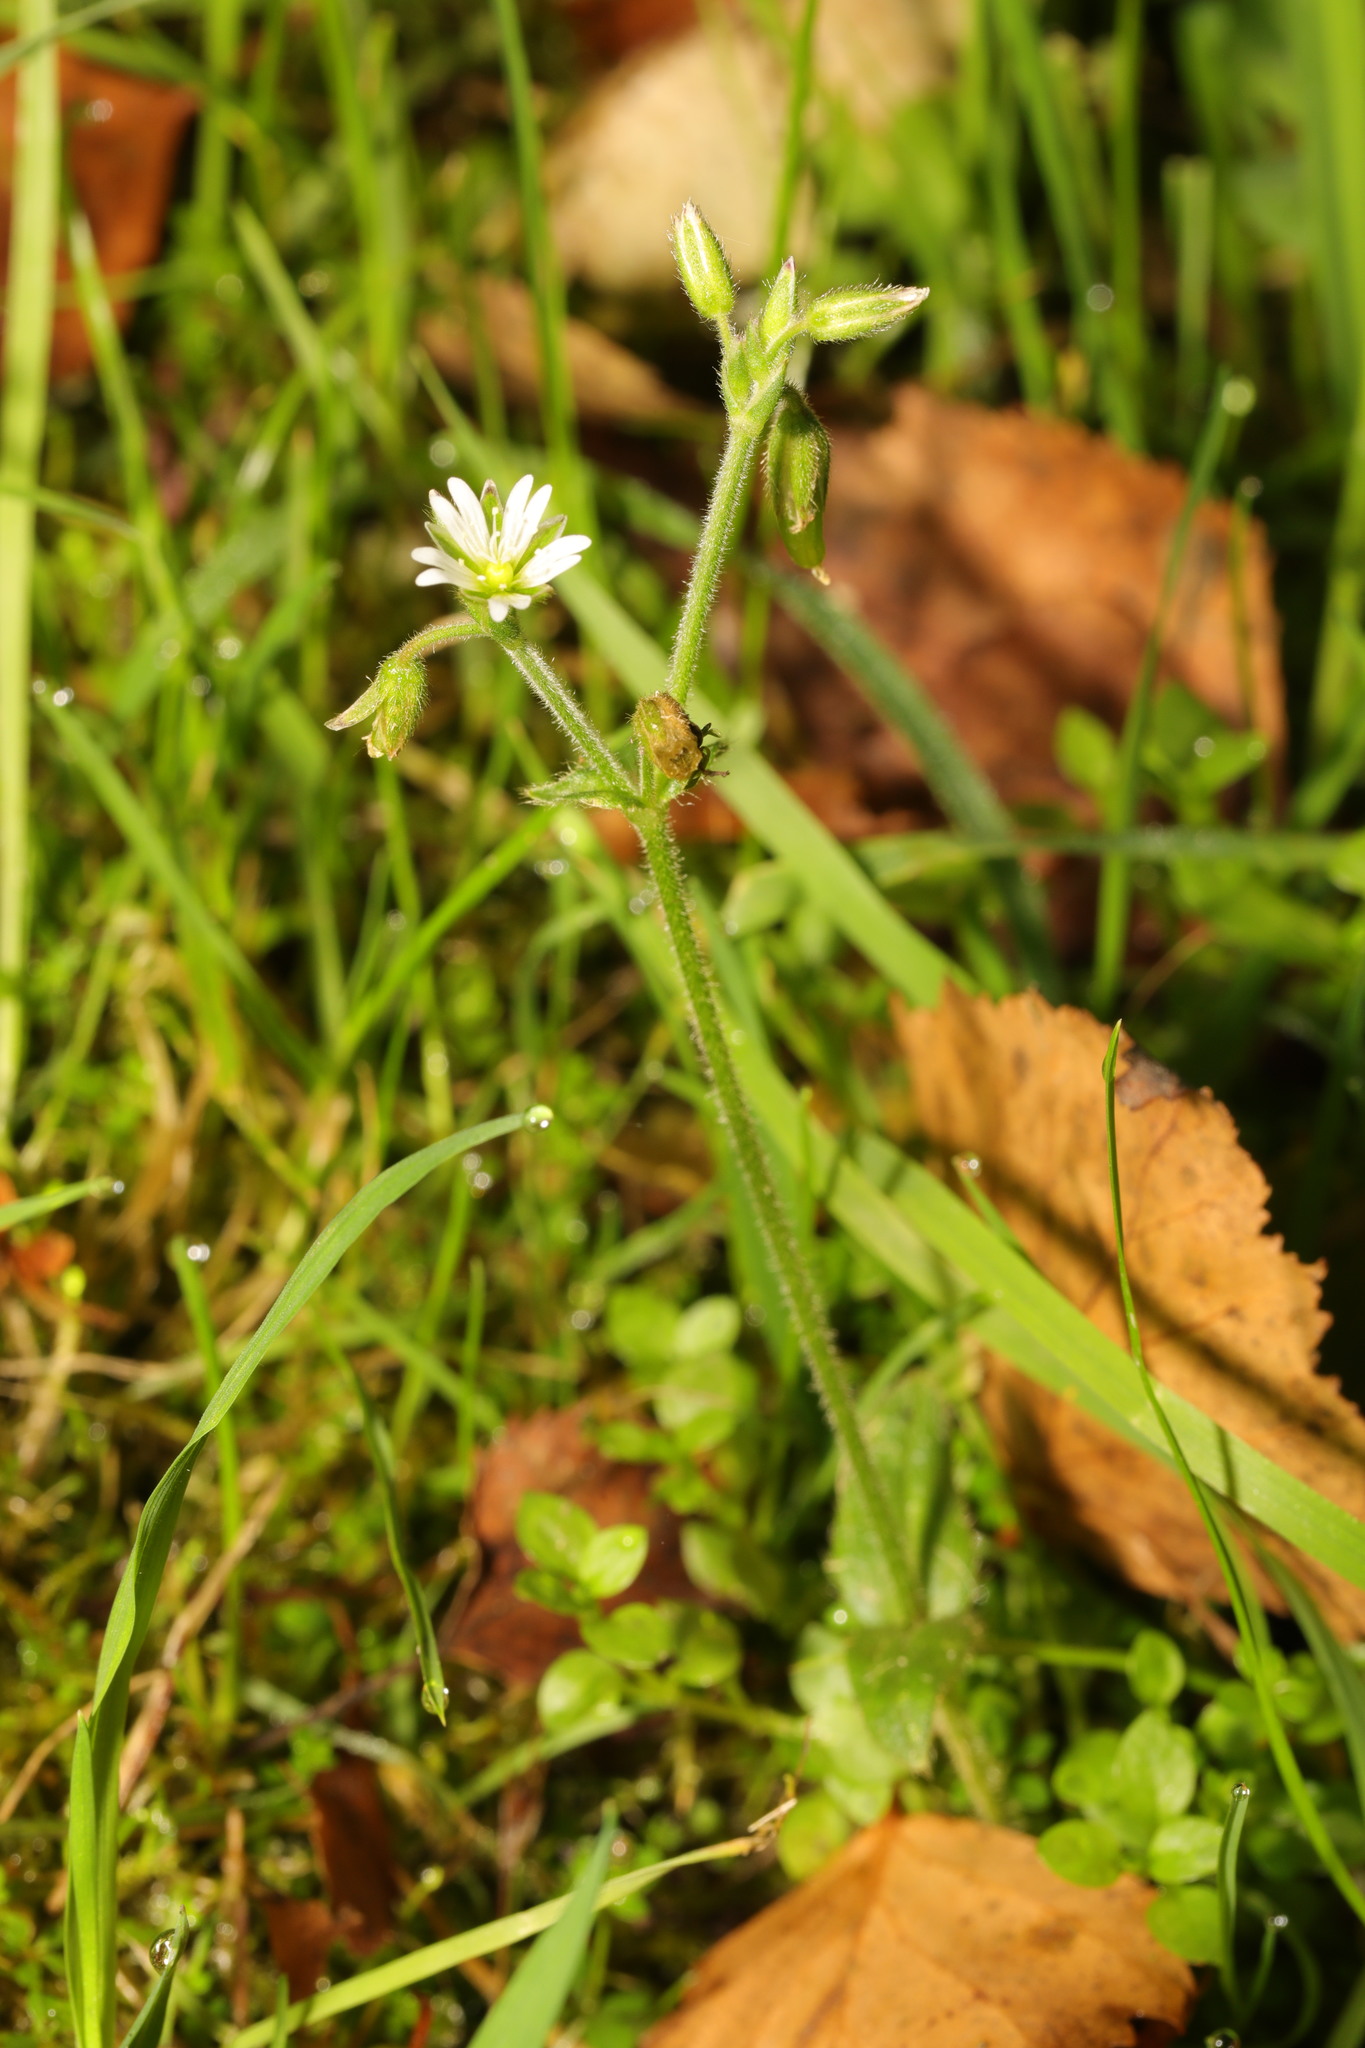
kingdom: Plantae
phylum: Tracheophyta
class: Magnoliopsida
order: Caryophyllales
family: Caryophyllaceae
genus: Cerastium
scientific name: Cerastium fontanum
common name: Common mouse-ear
